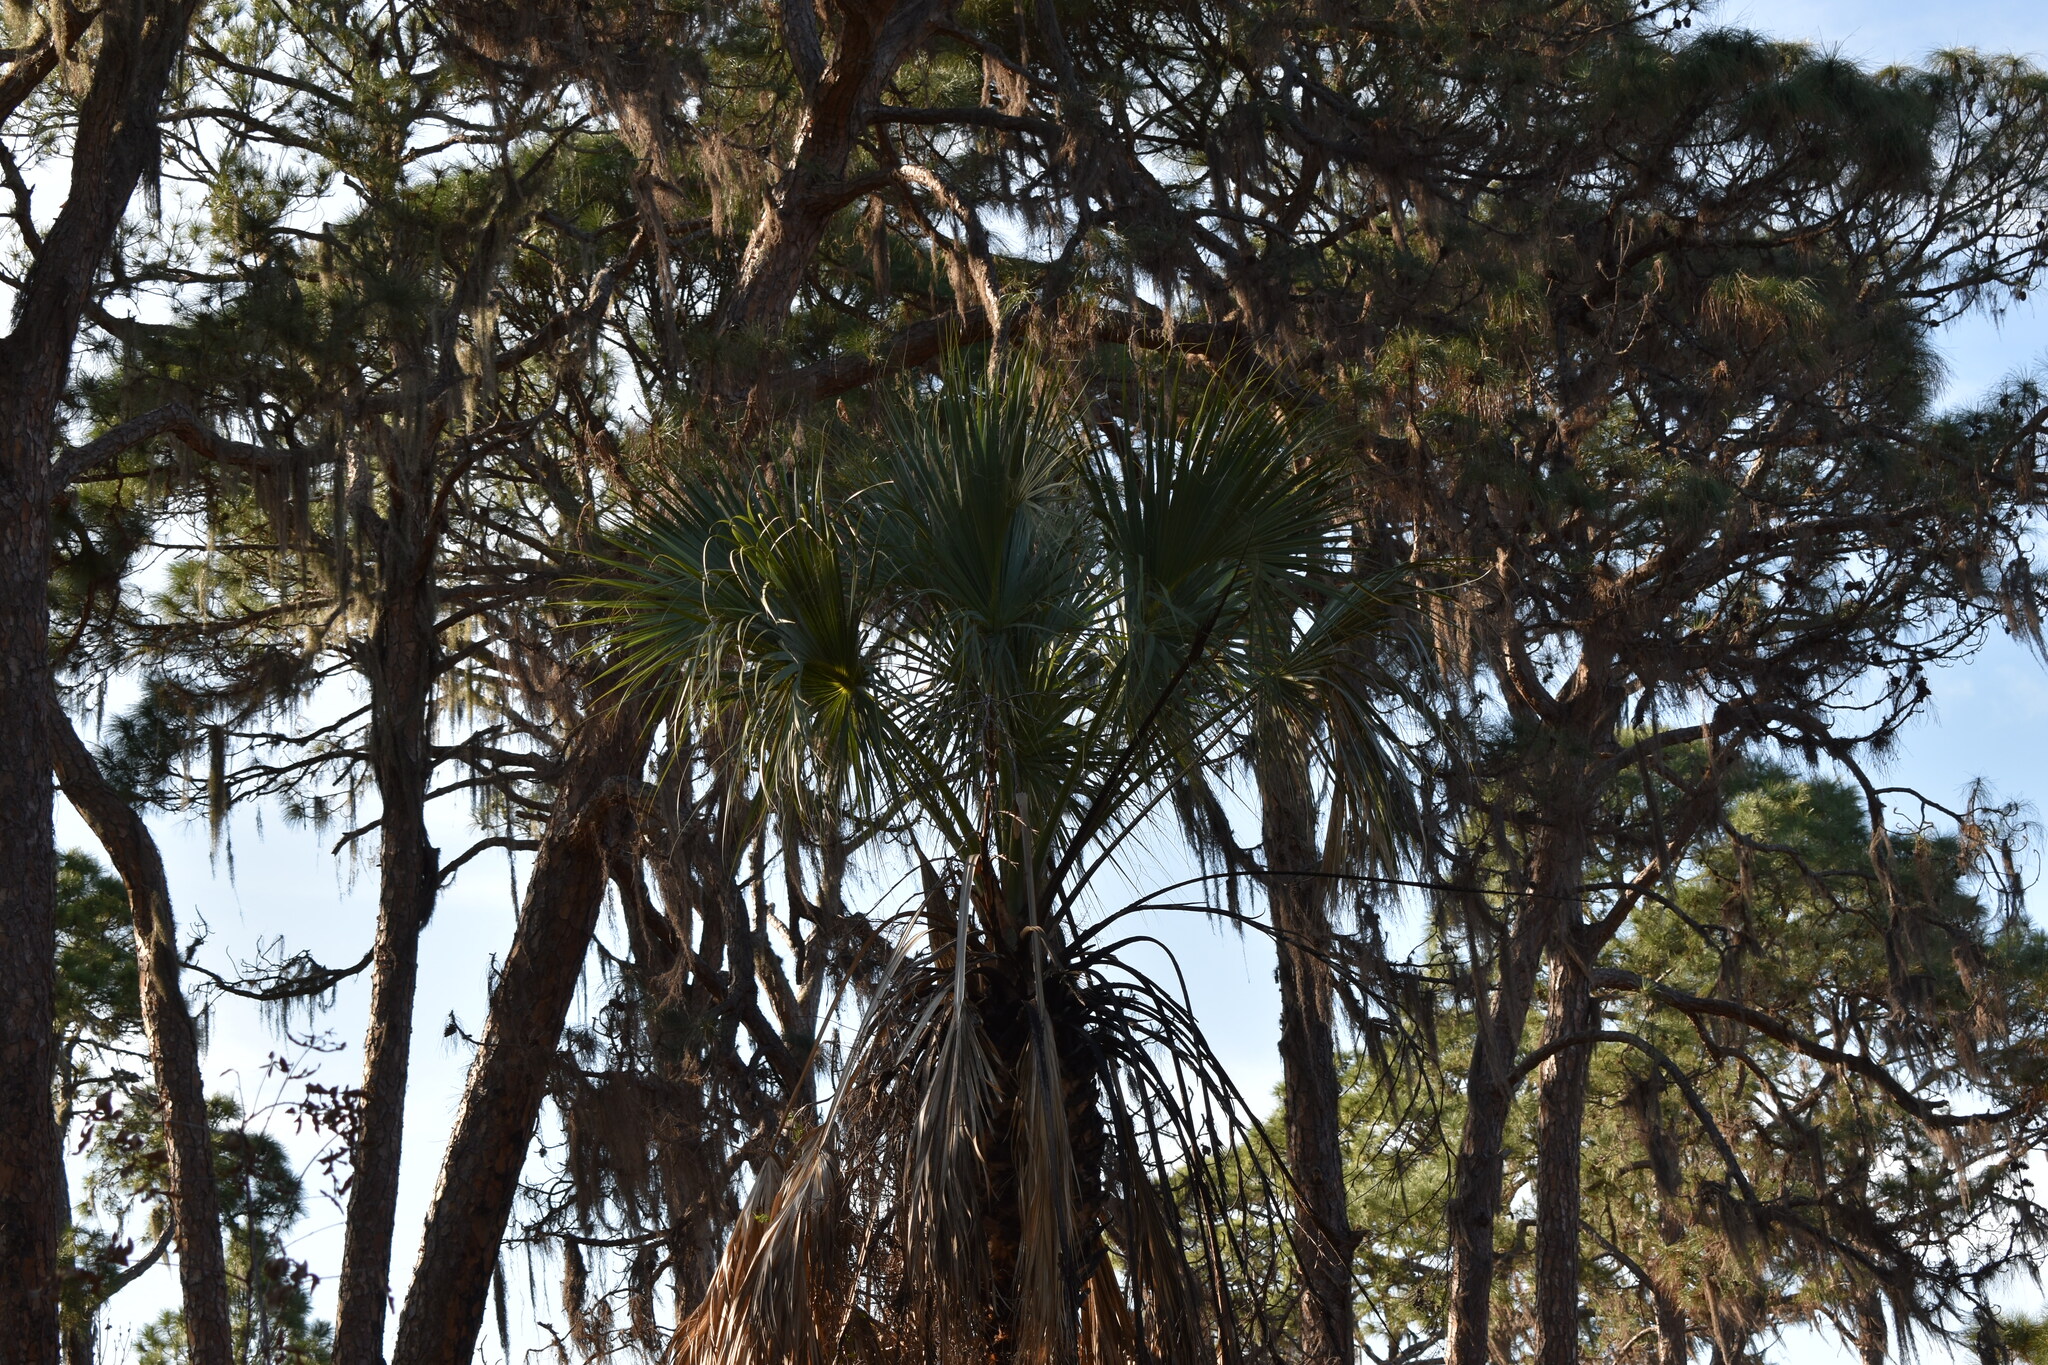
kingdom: Plantae
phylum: Tracheophyta
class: Liliopsida
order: Arecales
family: Arecaceae
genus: Sabal
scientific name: Sabal palmetto
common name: Blue palmetto
